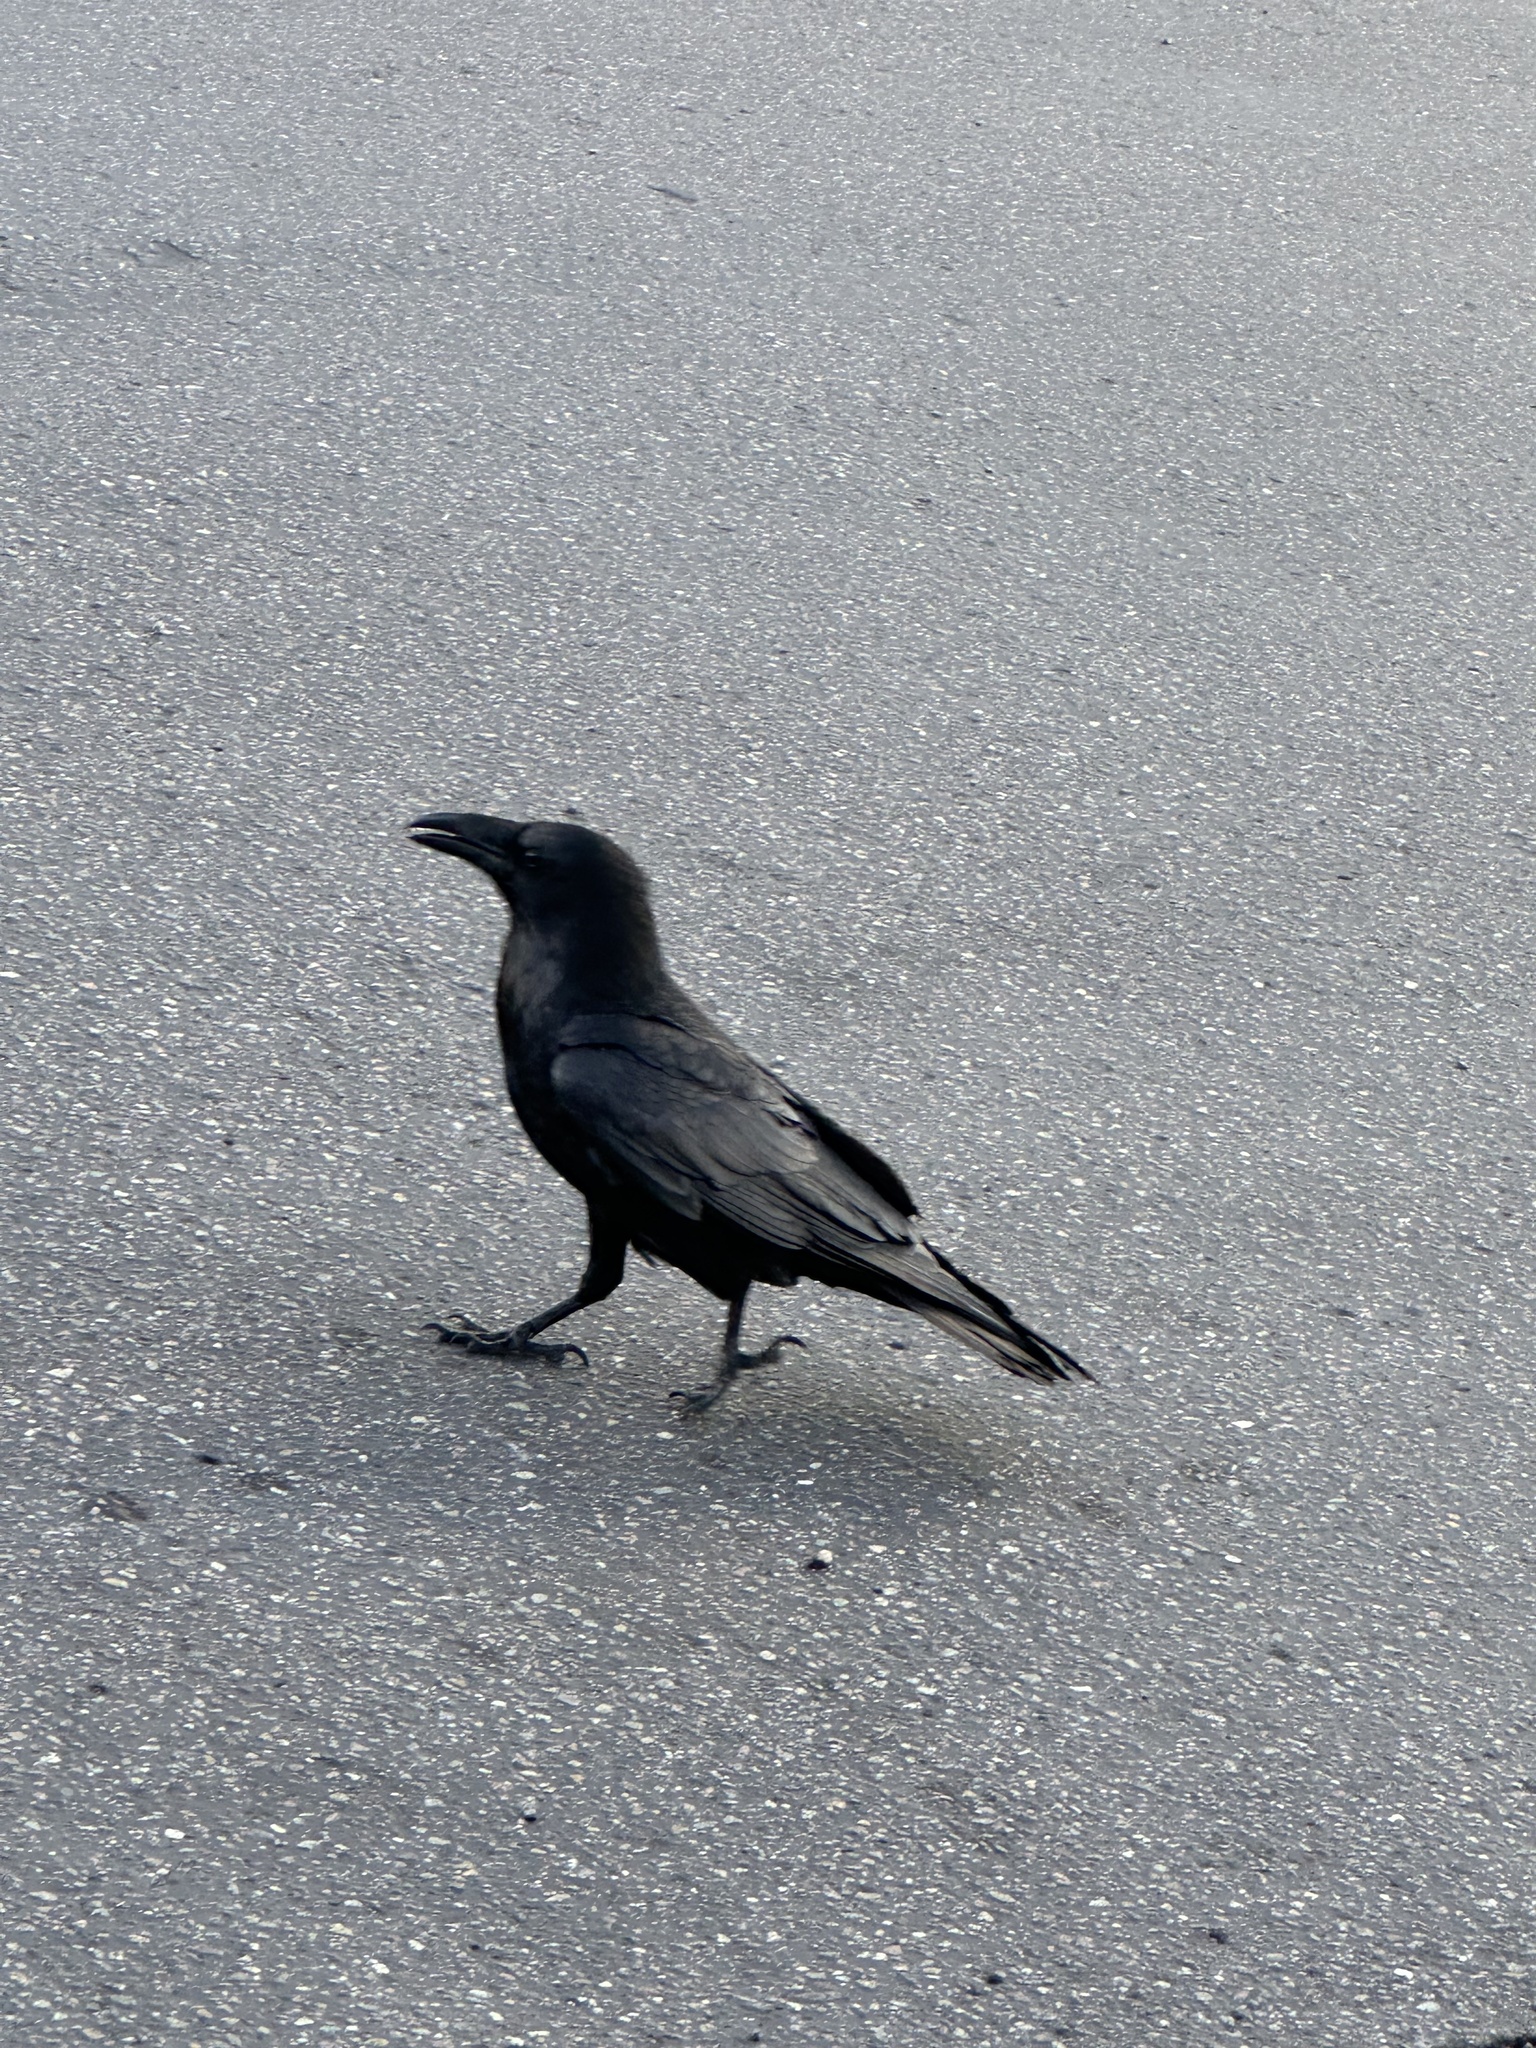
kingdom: Animalia
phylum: Chordata
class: Aves
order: Passeriformes
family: Corvidae
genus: Corvus
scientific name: Corvus corax
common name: Common raven
